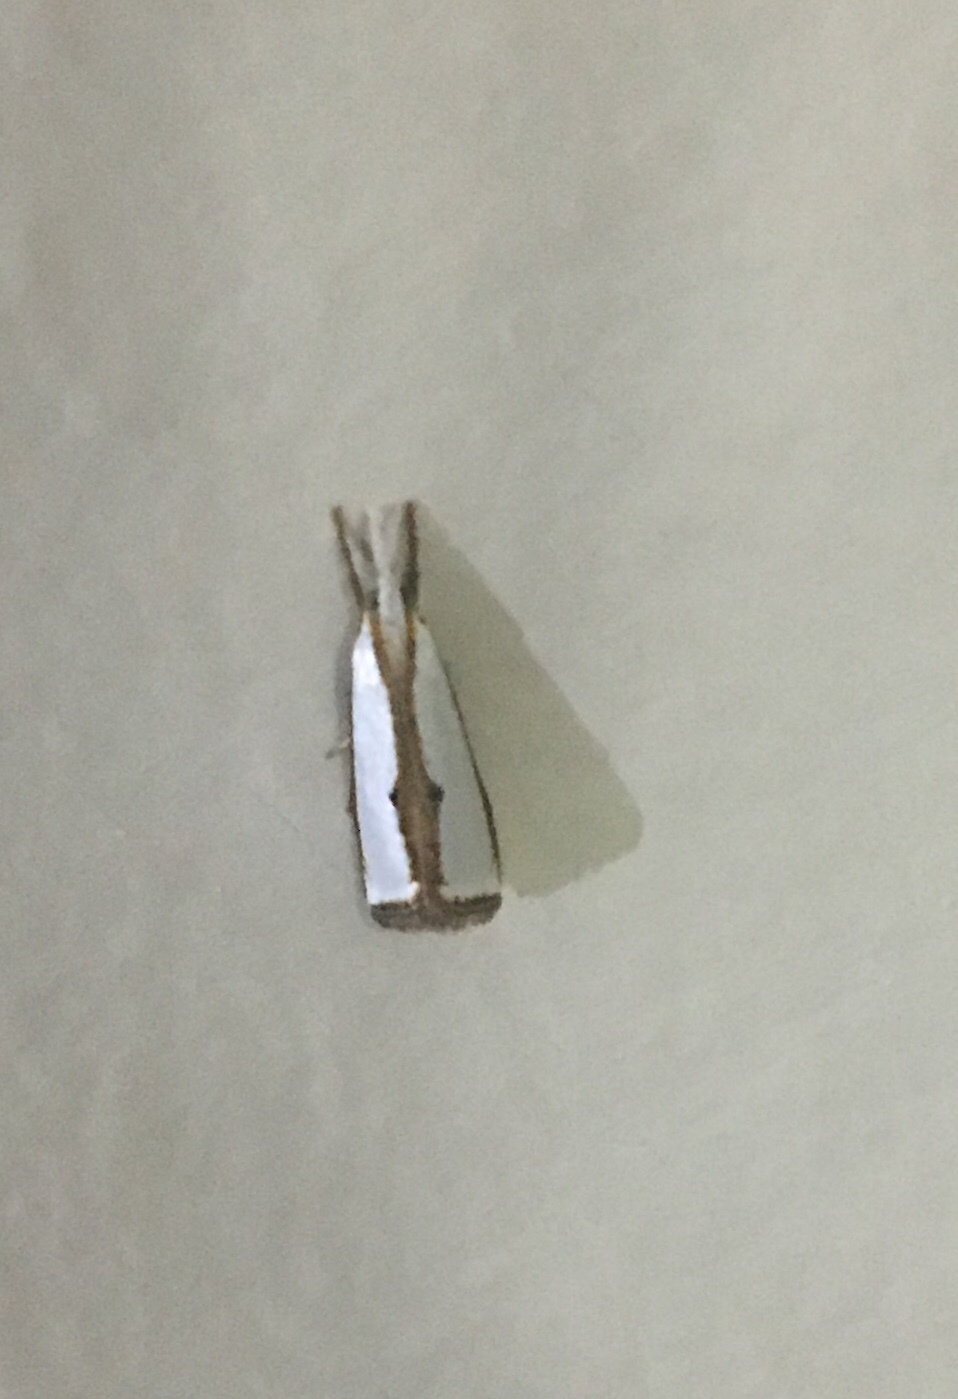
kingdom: Animalia
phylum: Arthropoda
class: Insecta
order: Lepidoptera
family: Crambidae
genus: Neargyria
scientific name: Neargyria argyraspis
